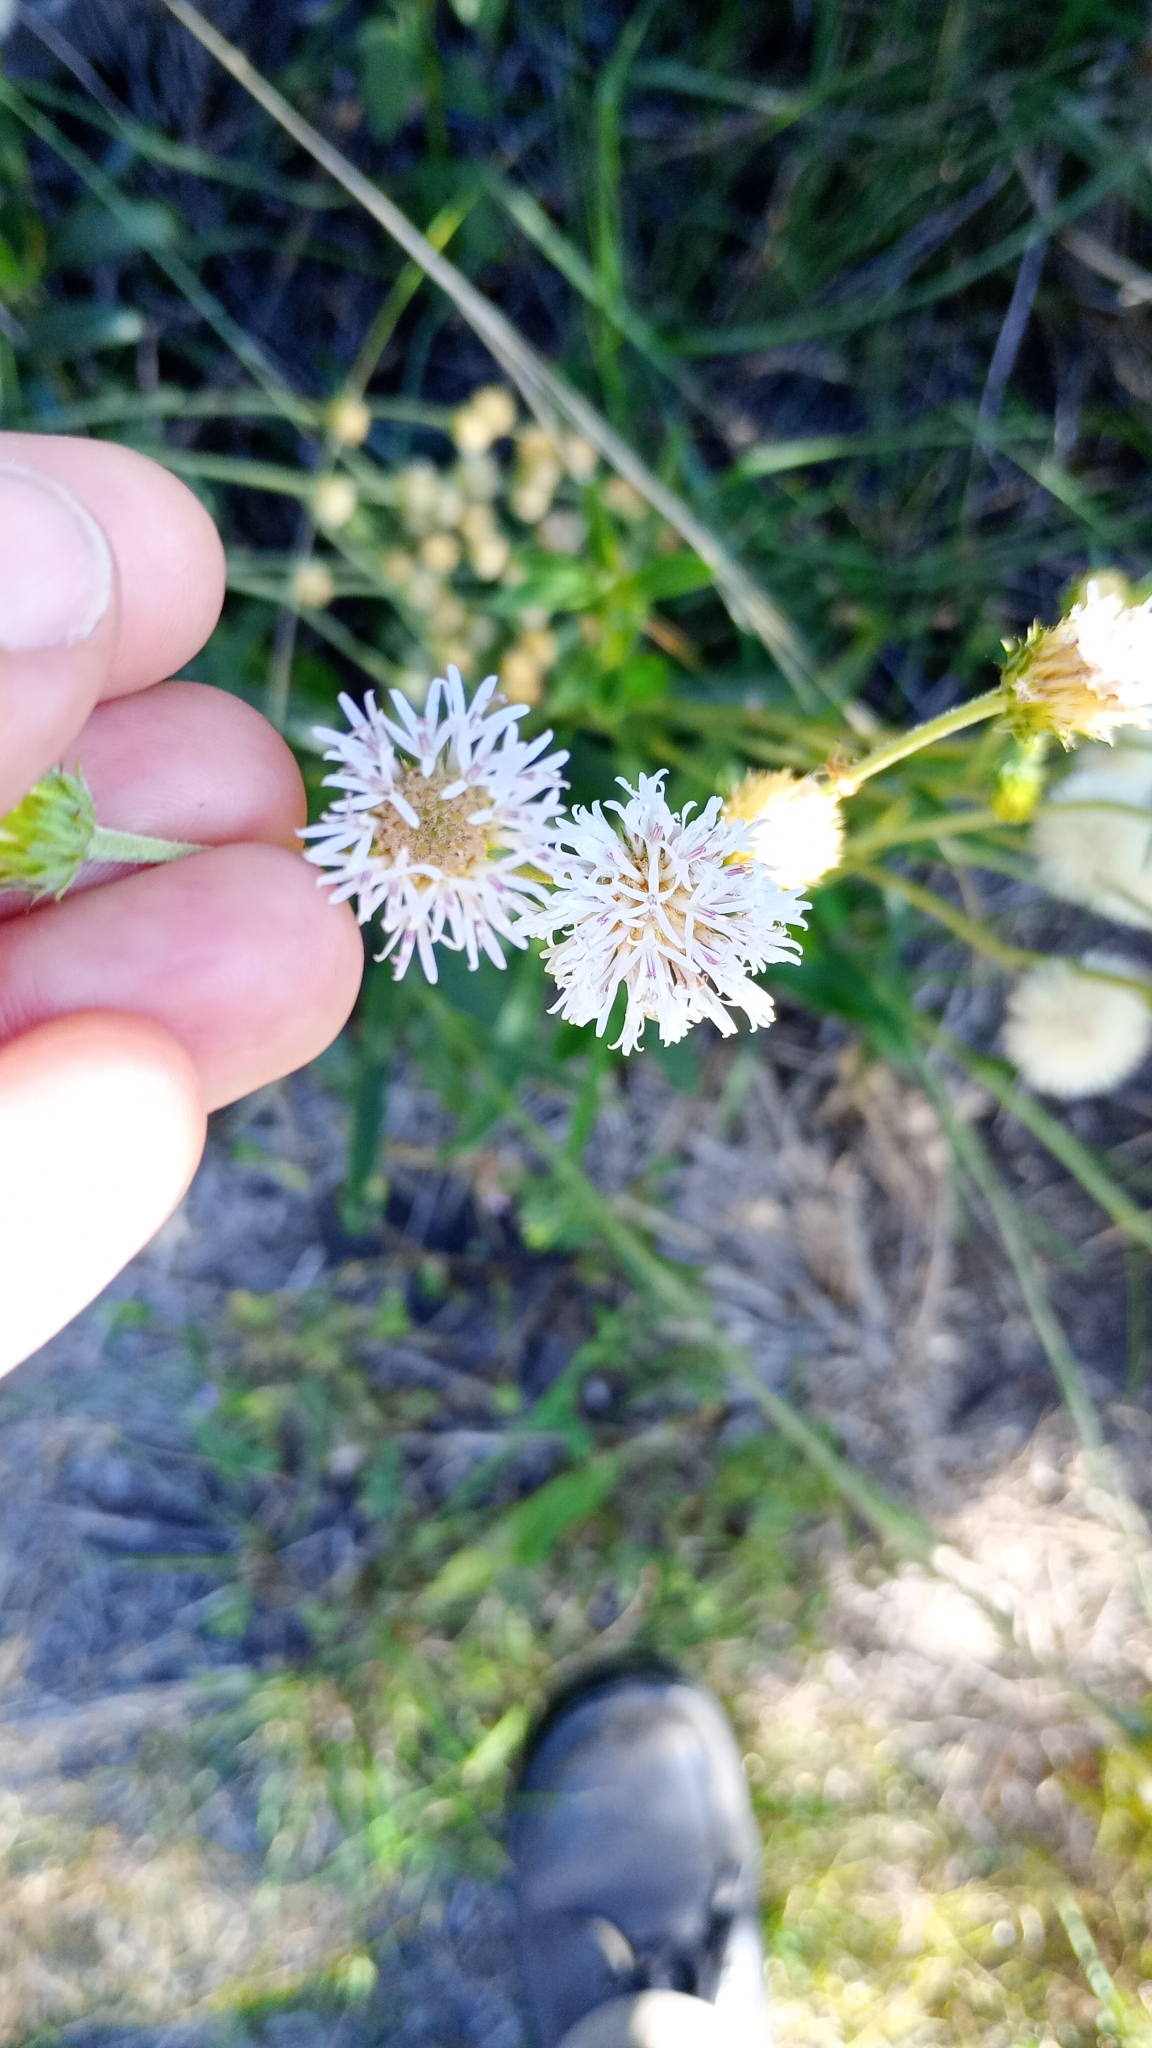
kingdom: Plantae
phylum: Tracheophyta
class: Magnoliopsida
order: Asterales
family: Asteraceae
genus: Chrysolaena
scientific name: Chrysolaena flexuosa
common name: Zig-zag vernonia
